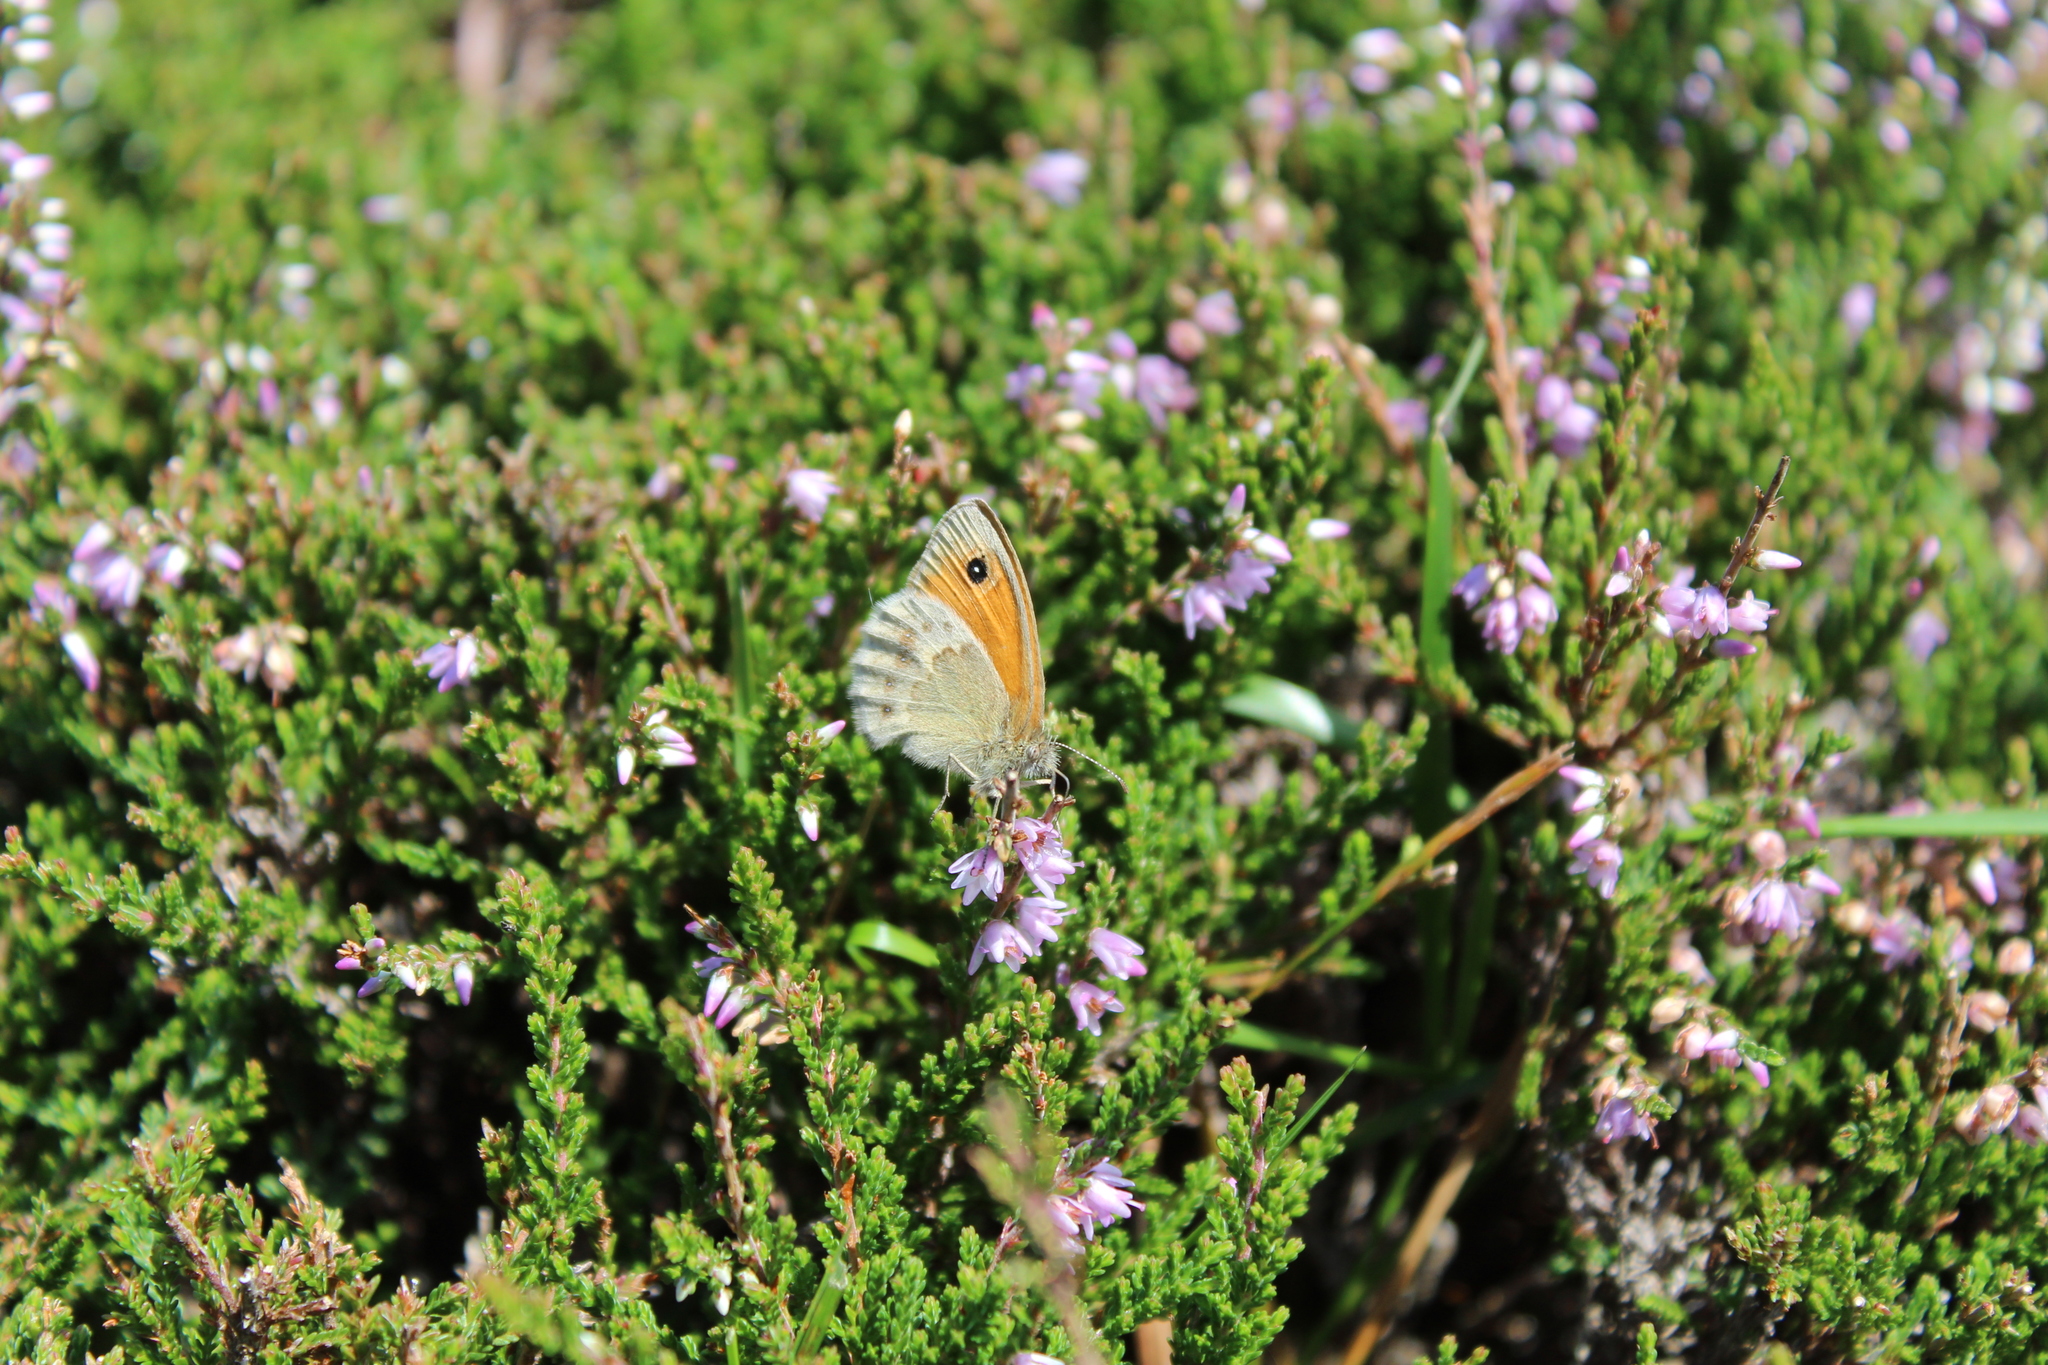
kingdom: Animalia
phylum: Arthropoda
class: Insecta
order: Lepidoptera
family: Nymphalidae
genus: Coenonympha
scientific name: Coenonympha pamphilus
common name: Small heath
